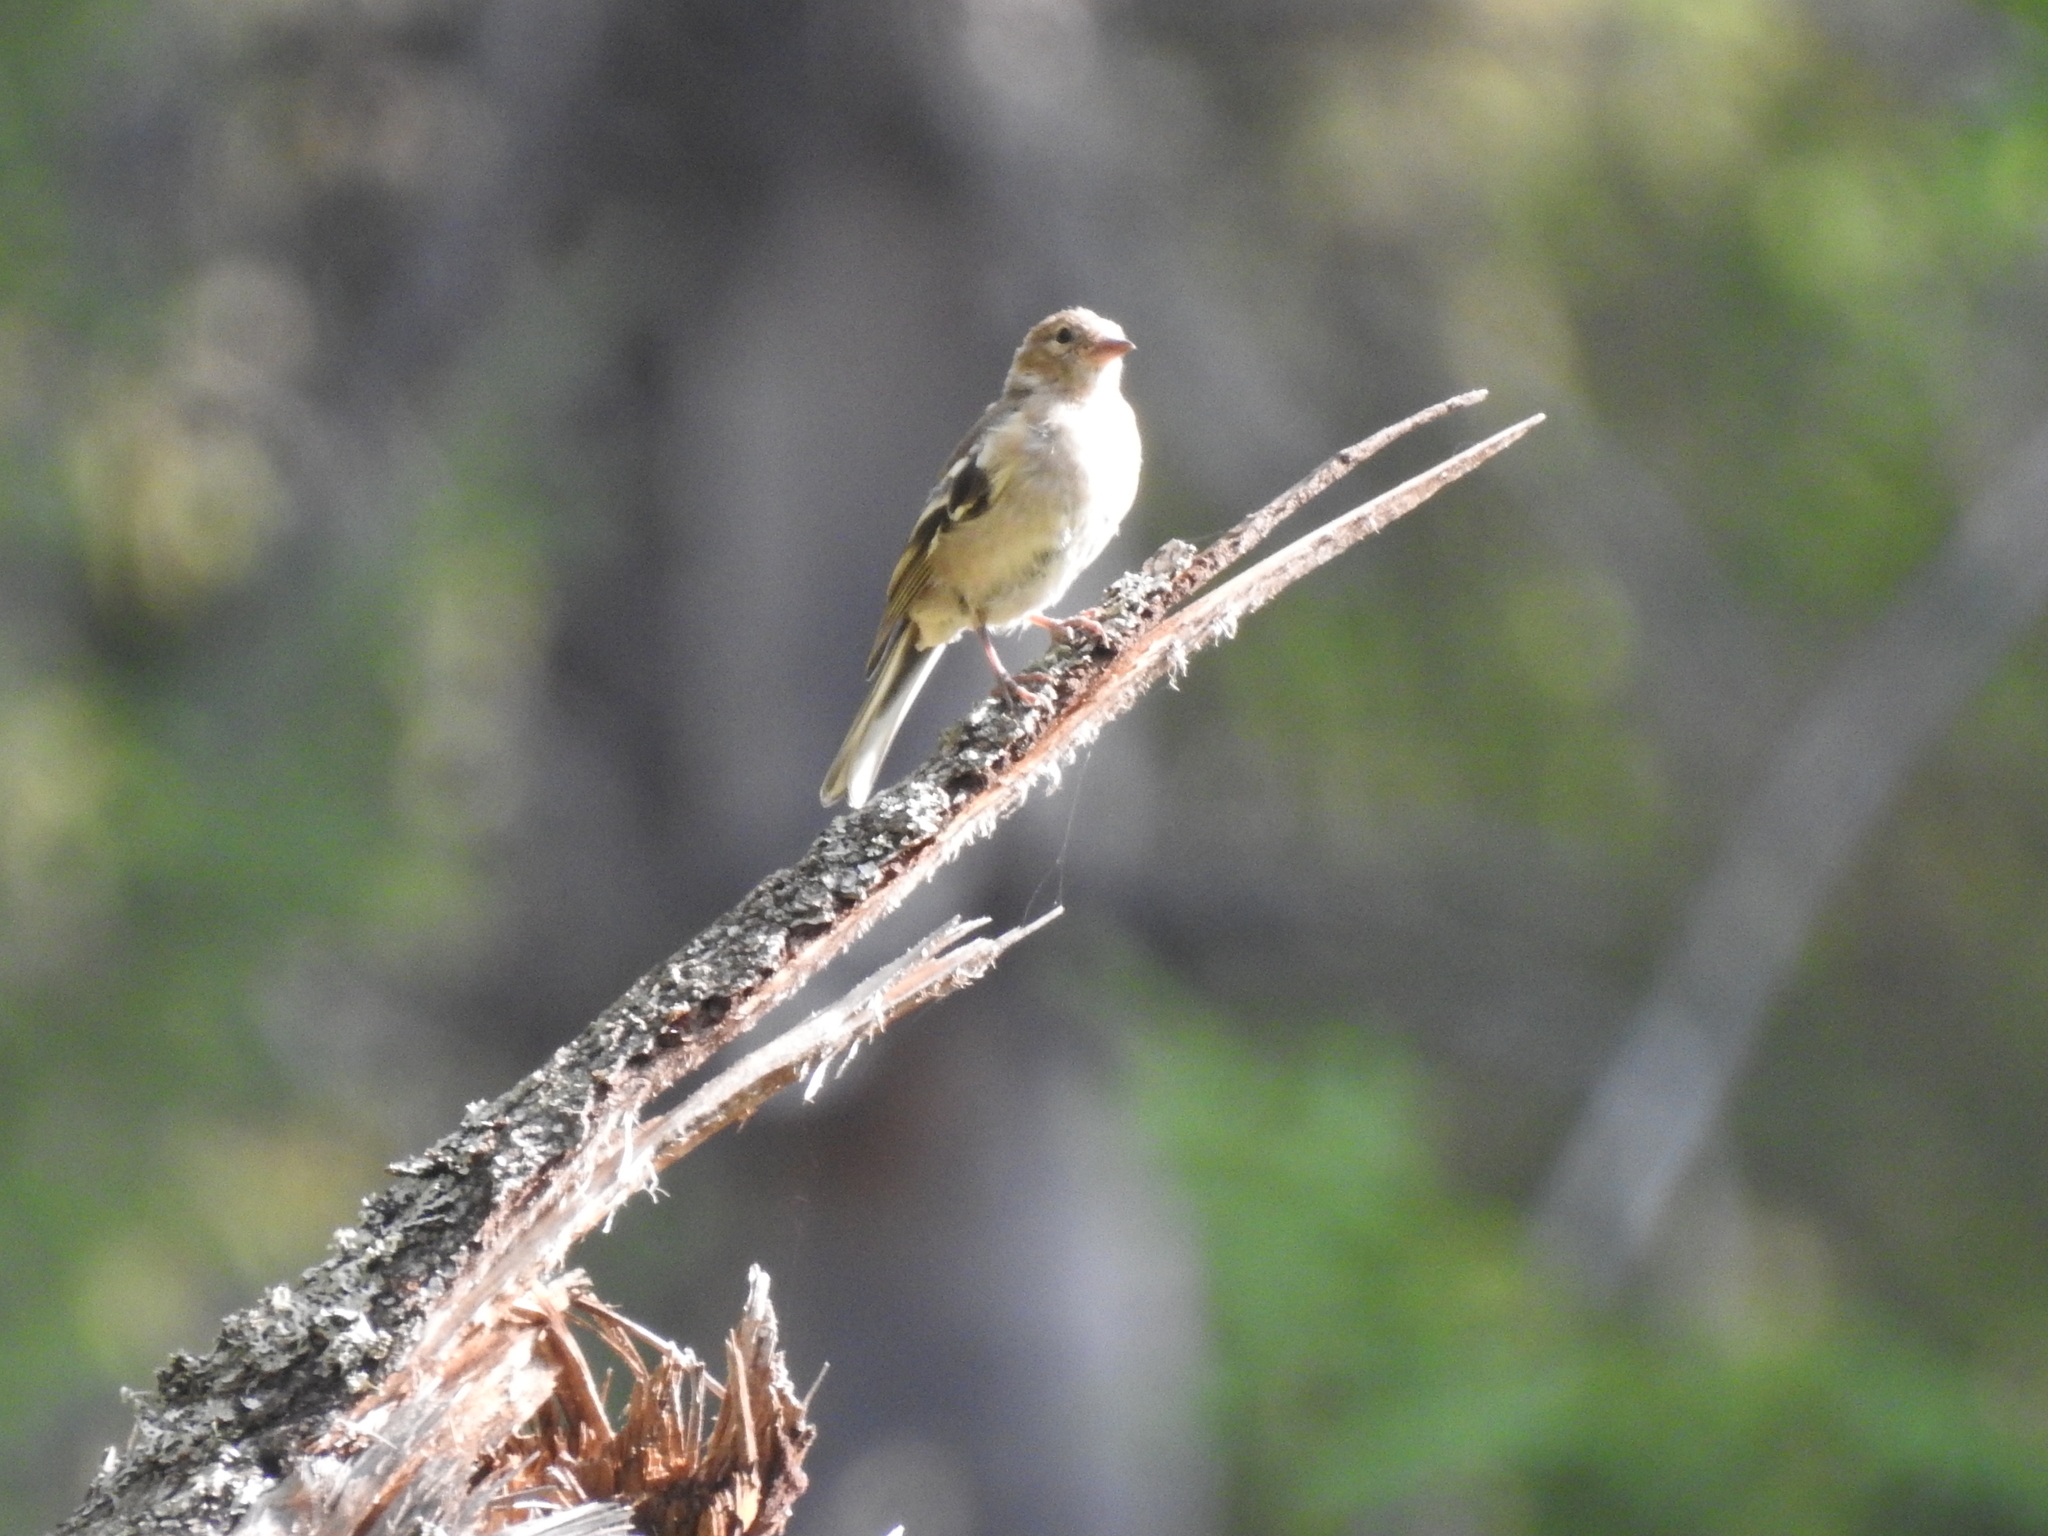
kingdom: Animalia
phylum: Chordata
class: Aves
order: Passeriformes
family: Fringillidae
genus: Fringilla
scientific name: Fringilla coelebs
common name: Common chaffinch
